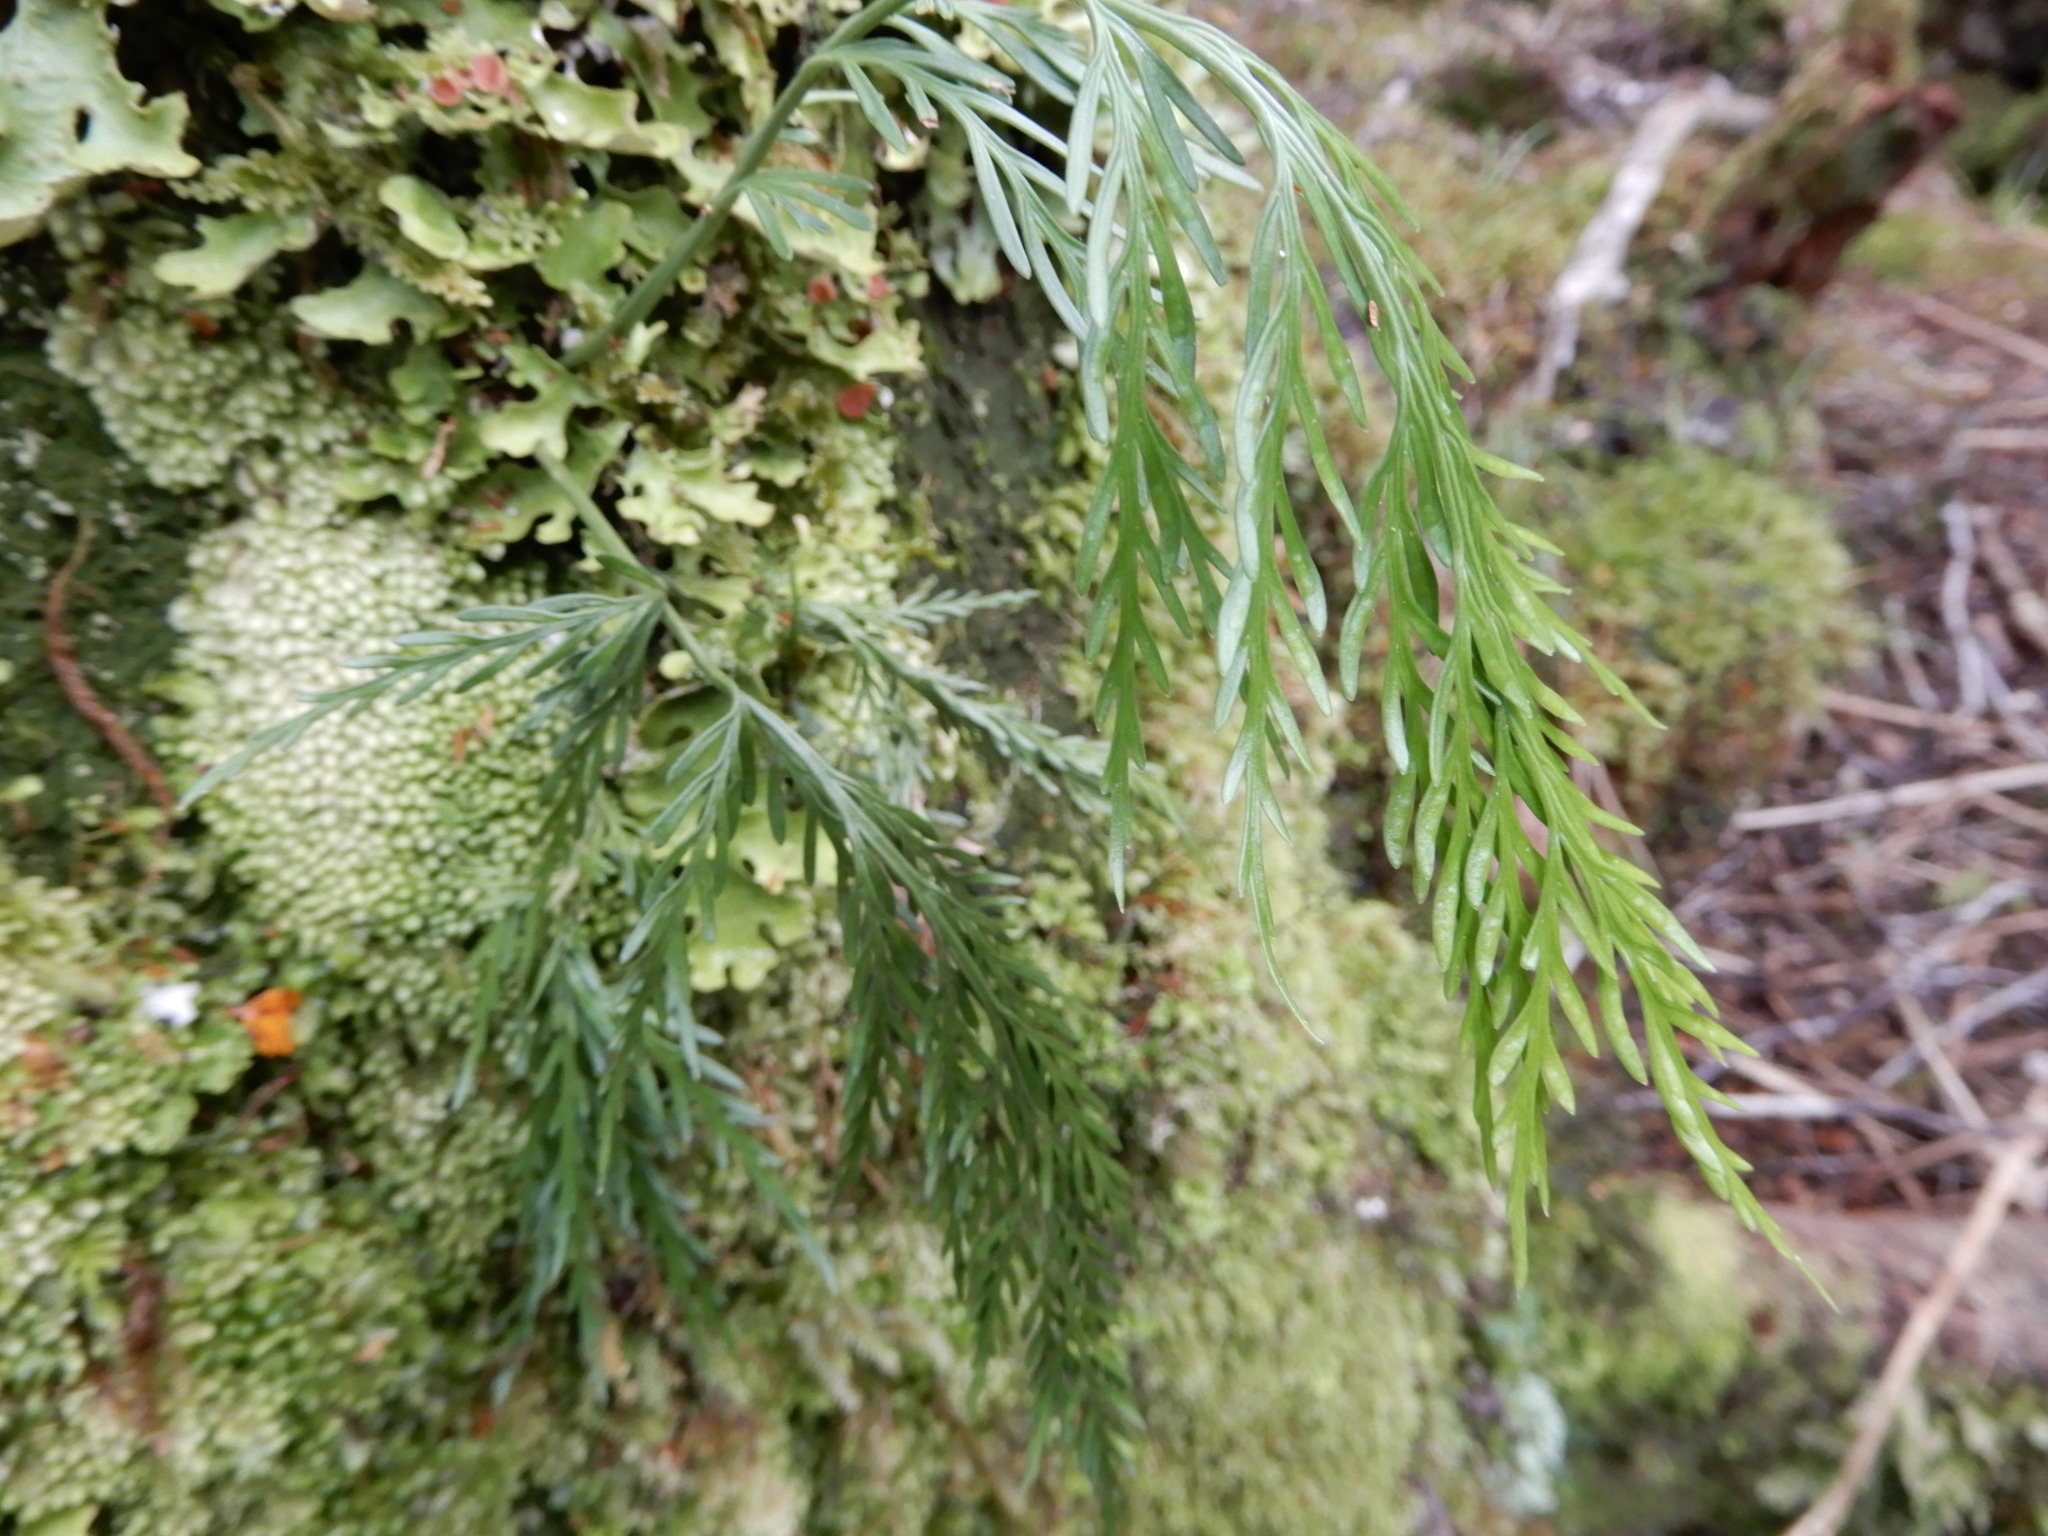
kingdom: Plantae
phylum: Tracheophyta
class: Polypodiopsida
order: Polypodiales
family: Aspleniaceae
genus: Asplenium
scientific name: Asplenium flaccidum
